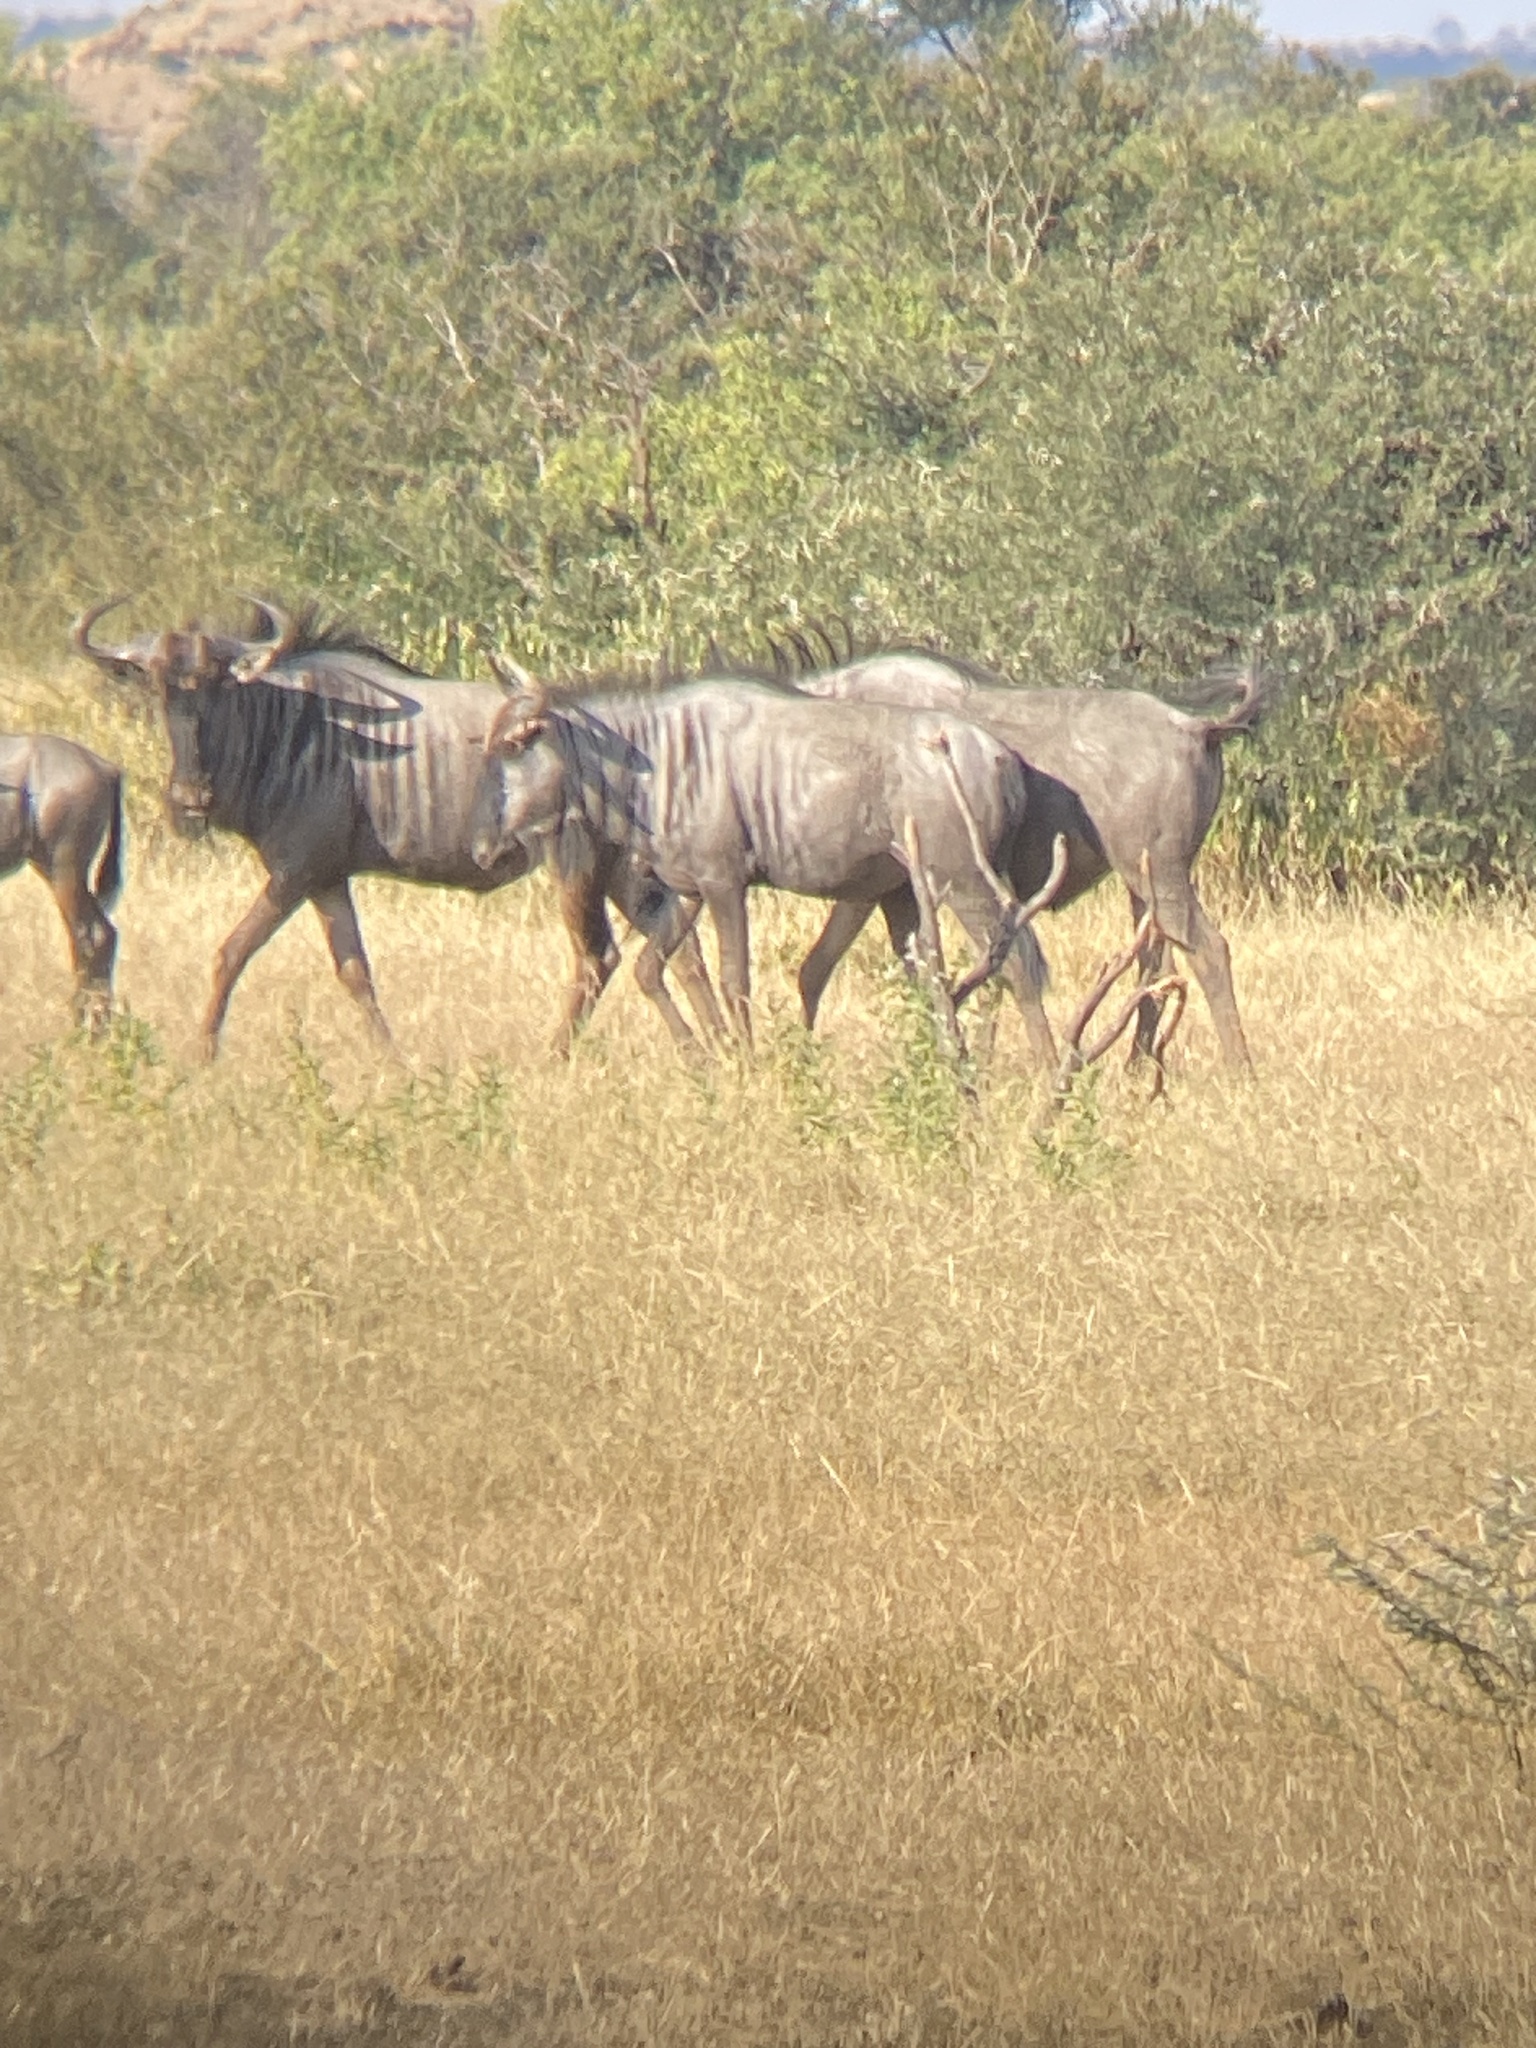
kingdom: Animalia
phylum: Chordata
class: Mammalia
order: Artiodactyla
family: Bovidae
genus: Connochaetes
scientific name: Connochaetes taurinus
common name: Blue wildebeest
